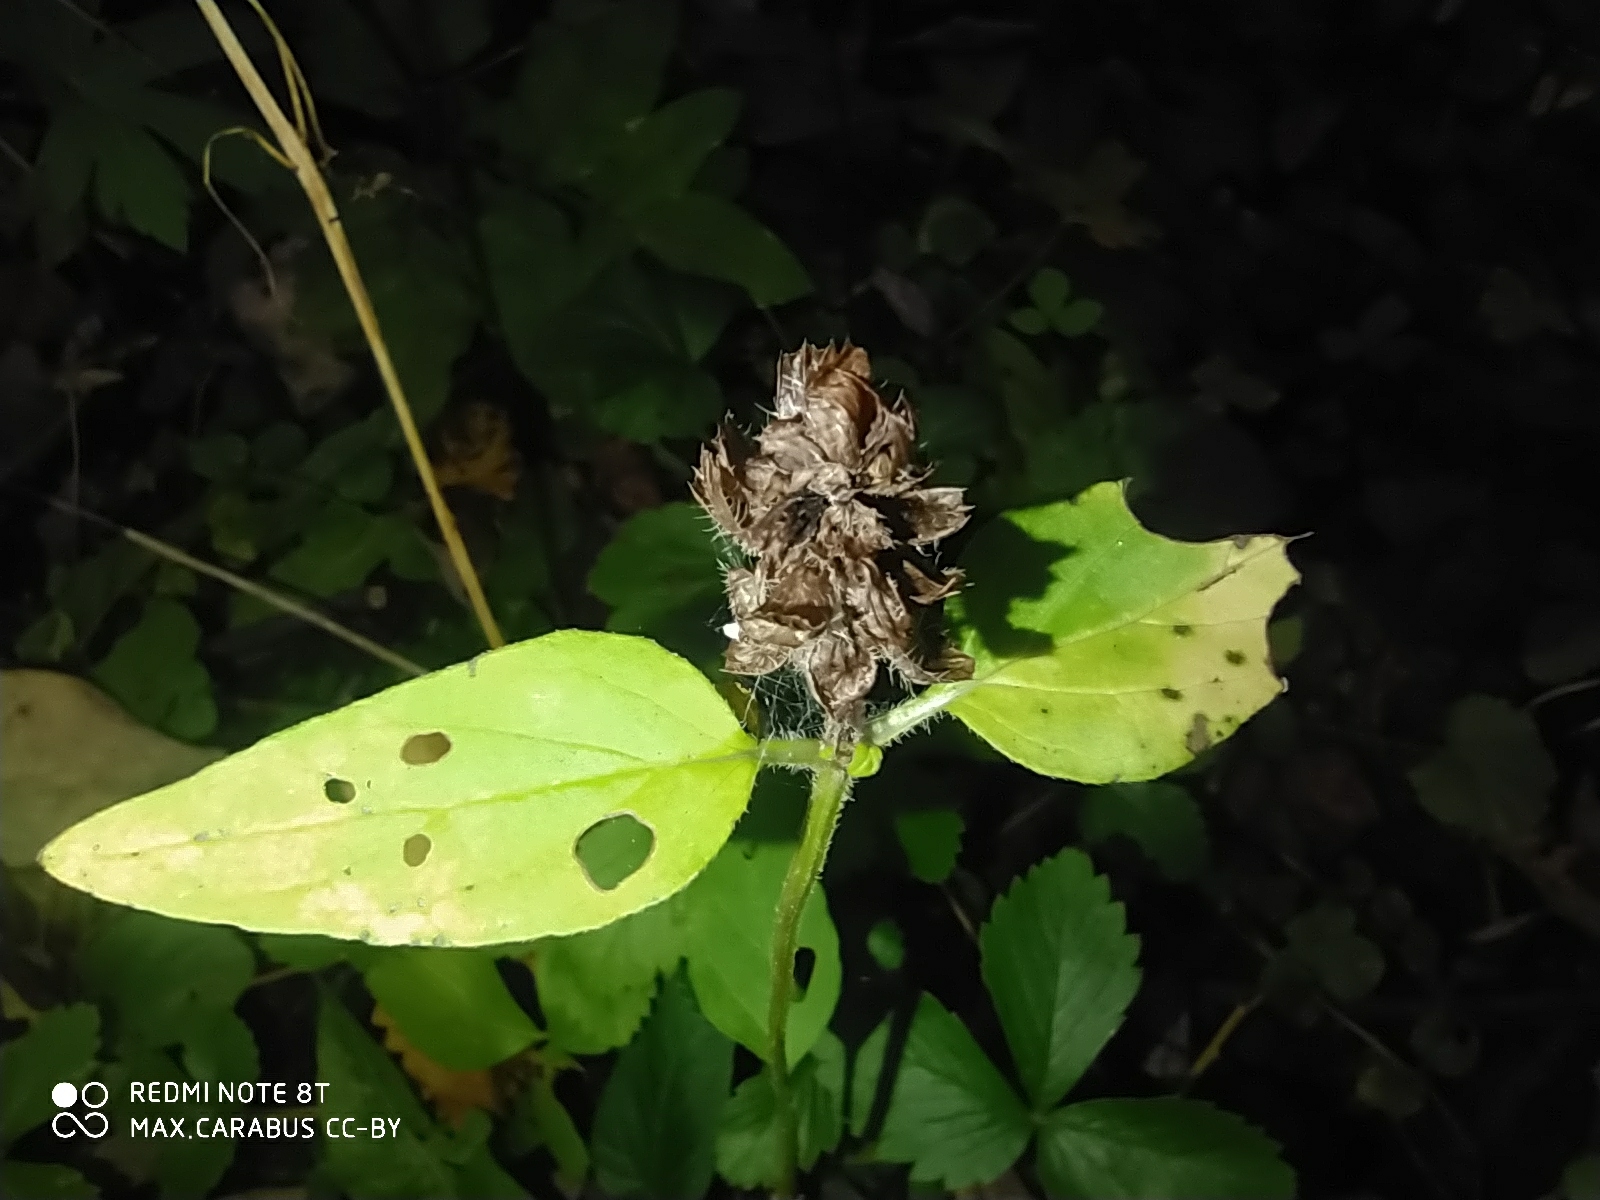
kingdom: Plantae
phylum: Tracheophyta
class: Magnoliopsida
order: Lamiales
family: Lamiaceae
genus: Prunella
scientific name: Prunella vulgaris
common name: Heal-all
